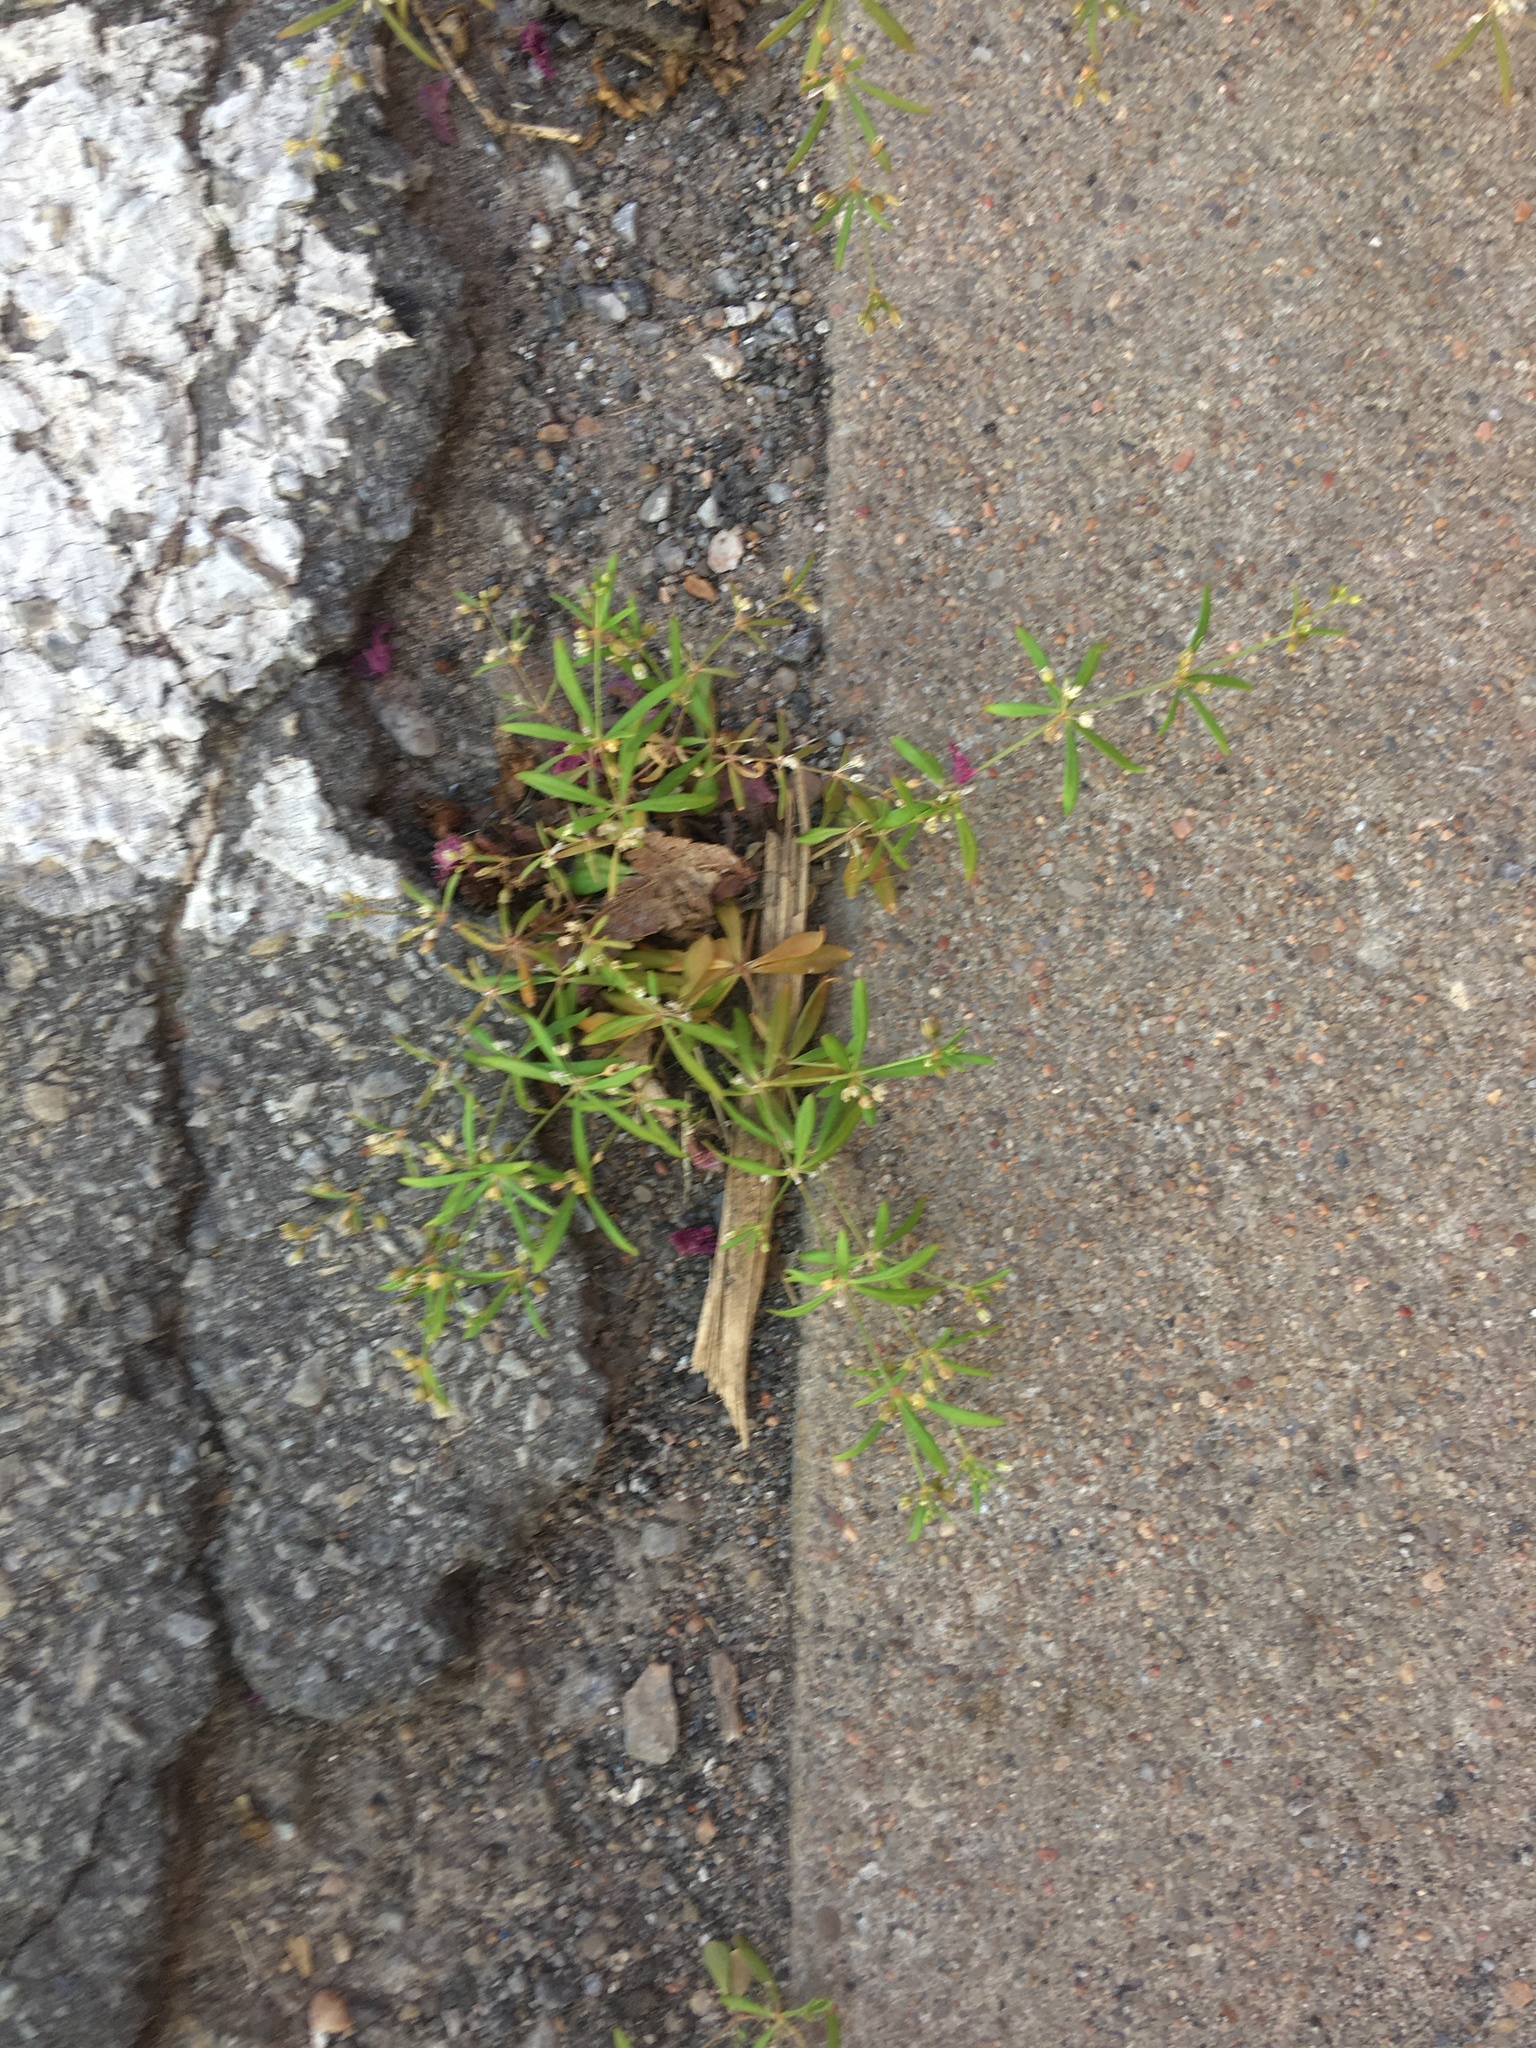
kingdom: Plantae
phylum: Tracheophyta
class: Magnoliopsida
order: Caryophyllales
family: Molluginaceae
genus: Mollugo
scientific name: Mollugo verticillata
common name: Green carpetweed
